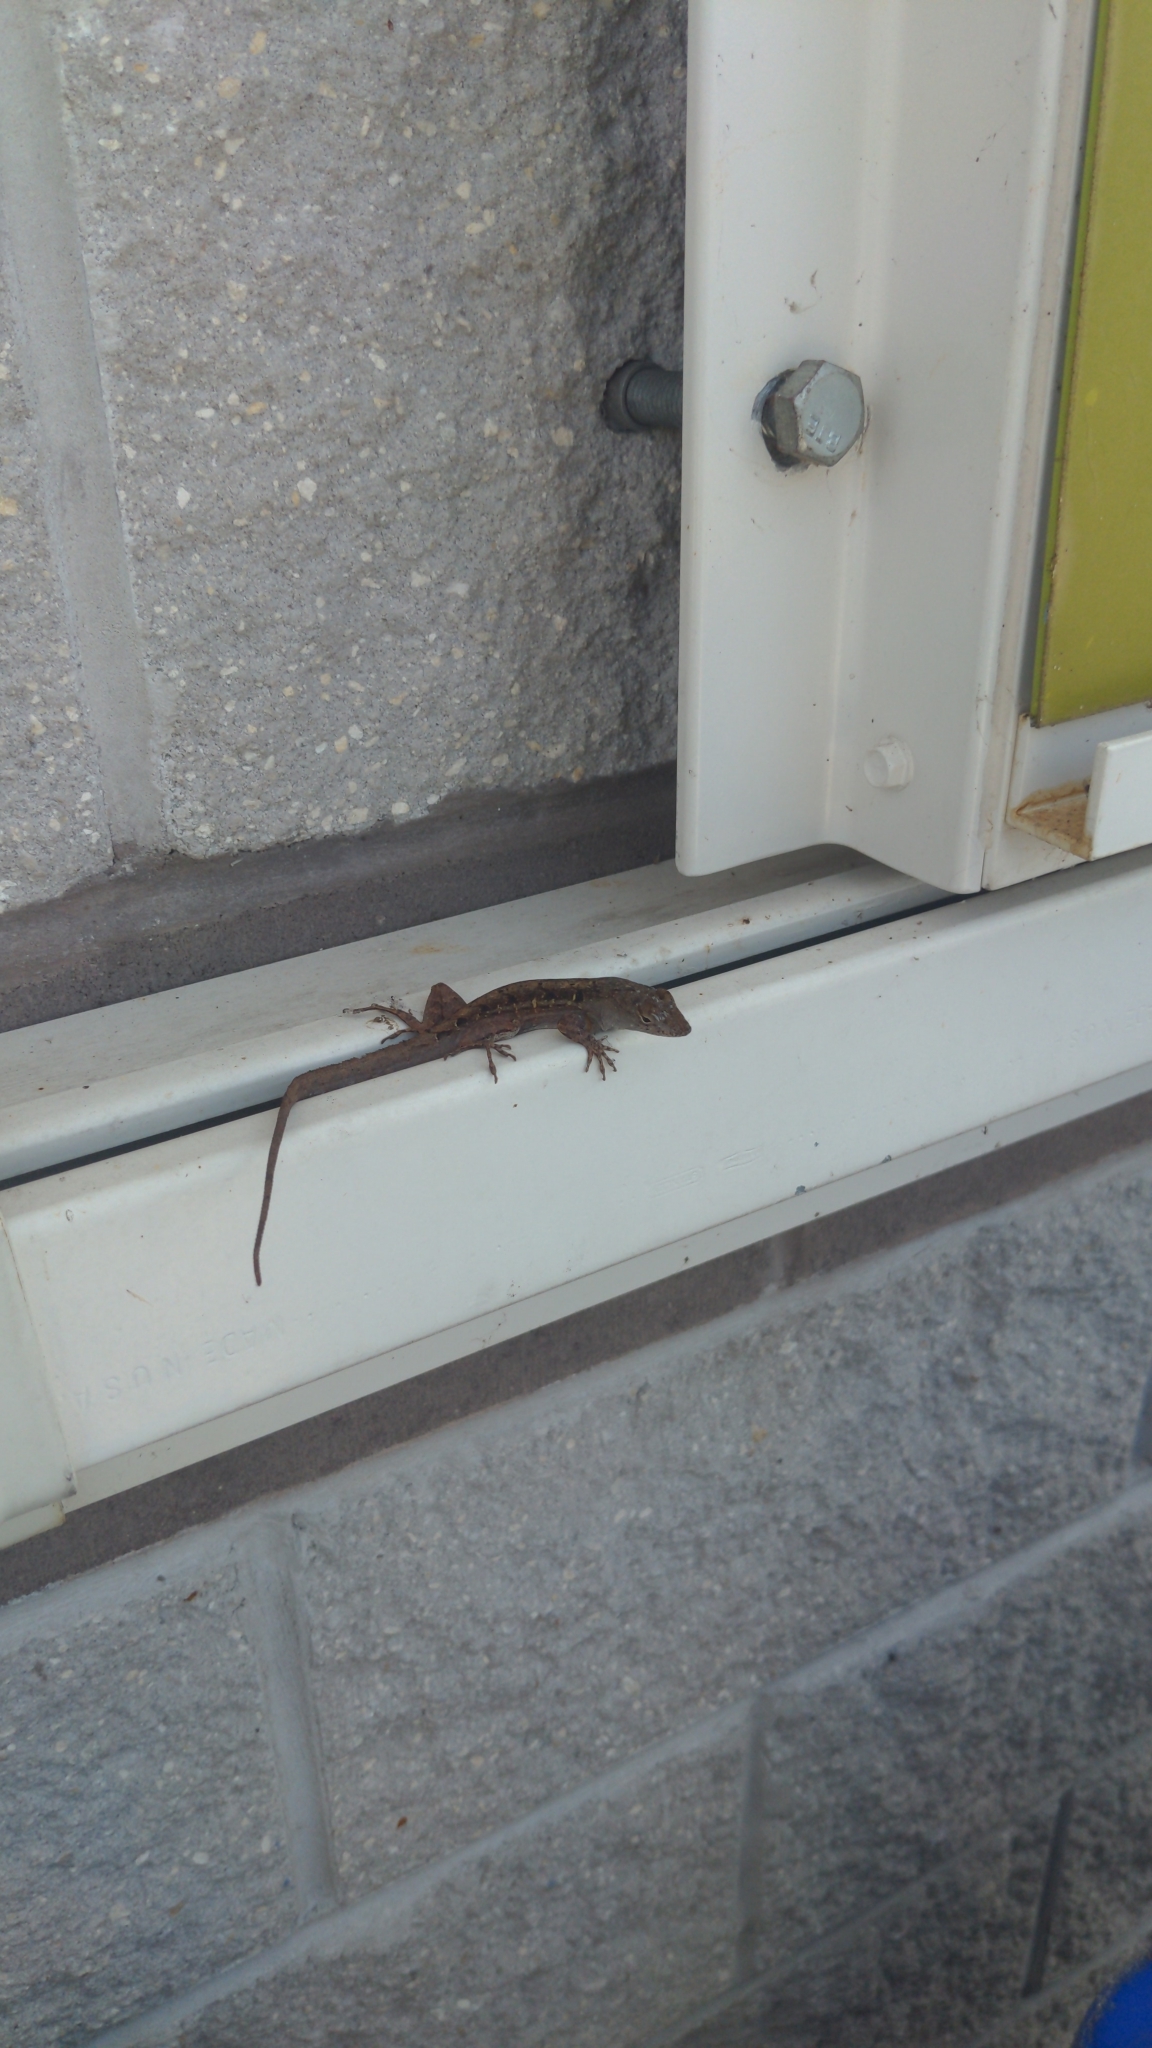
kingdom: Animalia
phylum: Chordata
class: Squamata
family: Dactyloidae
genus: Anolis
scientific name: Anolis sagrei
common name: Brown anole
